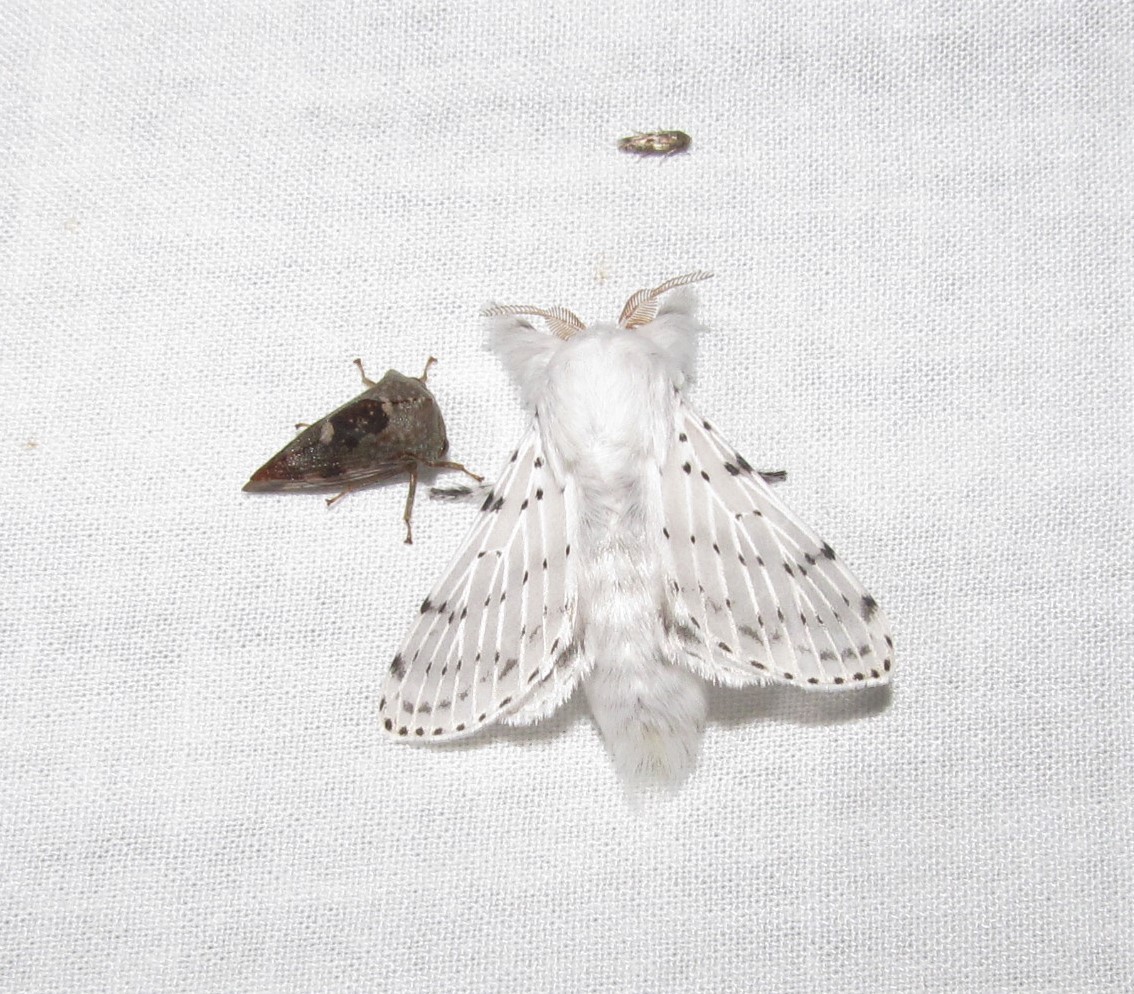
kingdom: Animalia
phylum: Arthropoda
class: Insecta
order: Lepidoptera
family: Lasiocampidae
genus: Artace
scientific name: Artace cribrarius
